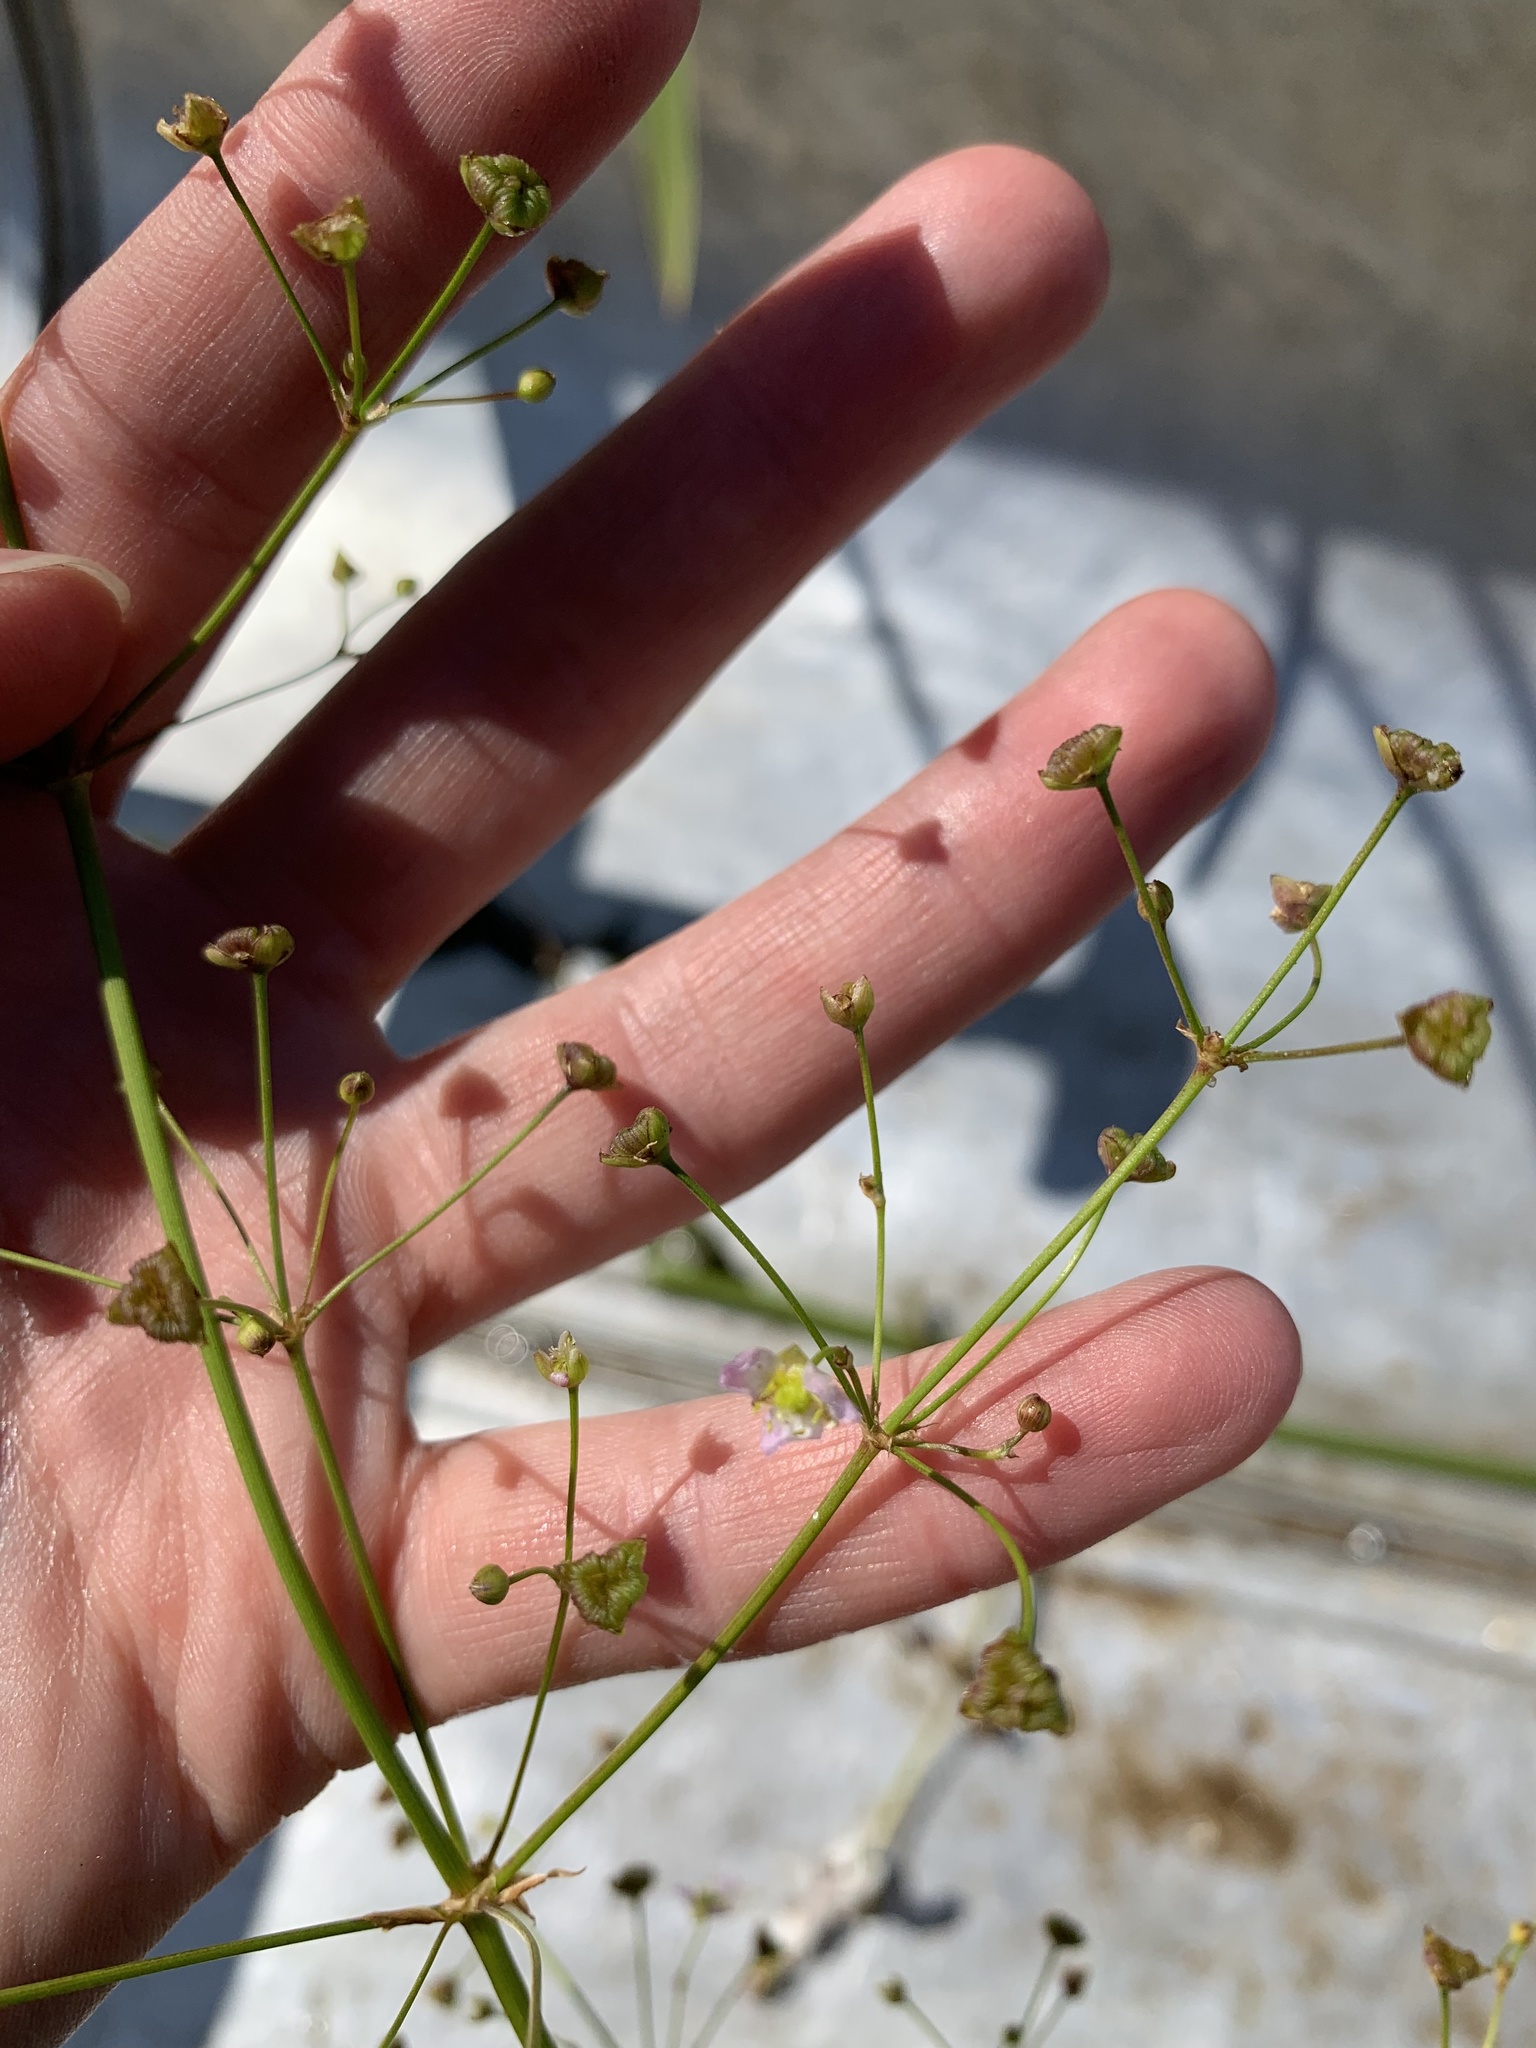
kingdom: Plantae
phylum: Tracheophyta
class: Liliopsida
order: Alismatales
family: Alismataceae
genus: Alisma
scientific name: Alisma plantago-aquatica
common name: Water-plantain
